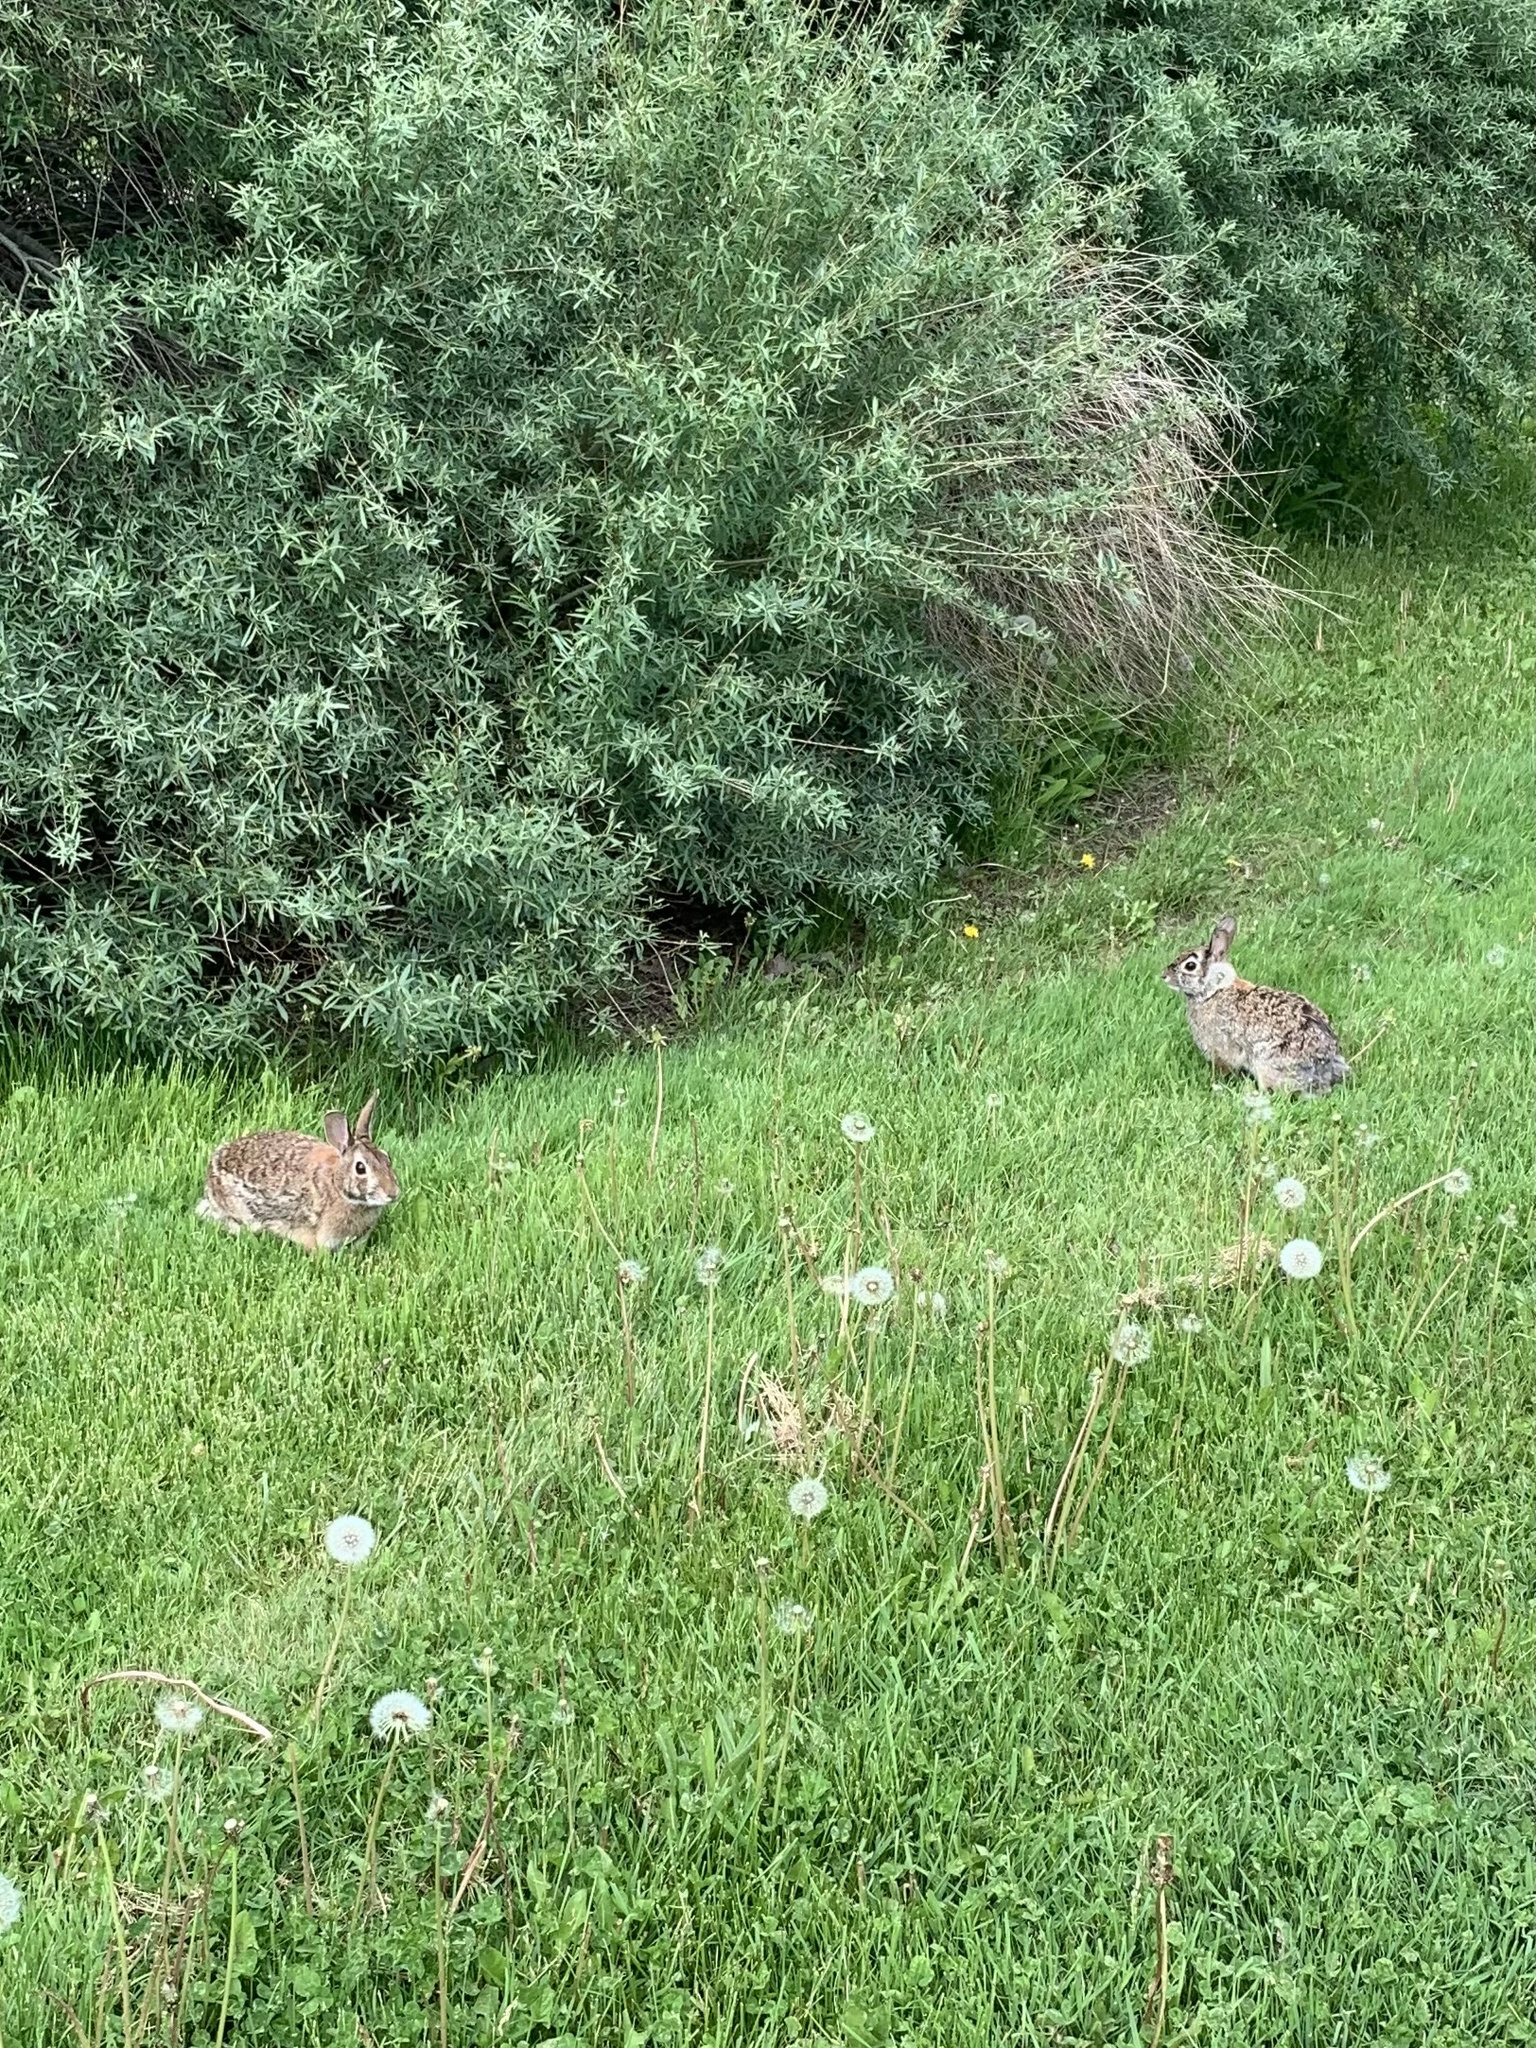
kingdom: Animalia
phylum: Chordata
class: Mammalia
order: Lagomorpha
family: Leporidae
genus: Sylvilagus
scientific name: Sylvilagus floridanus
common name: Eastern cottontail
